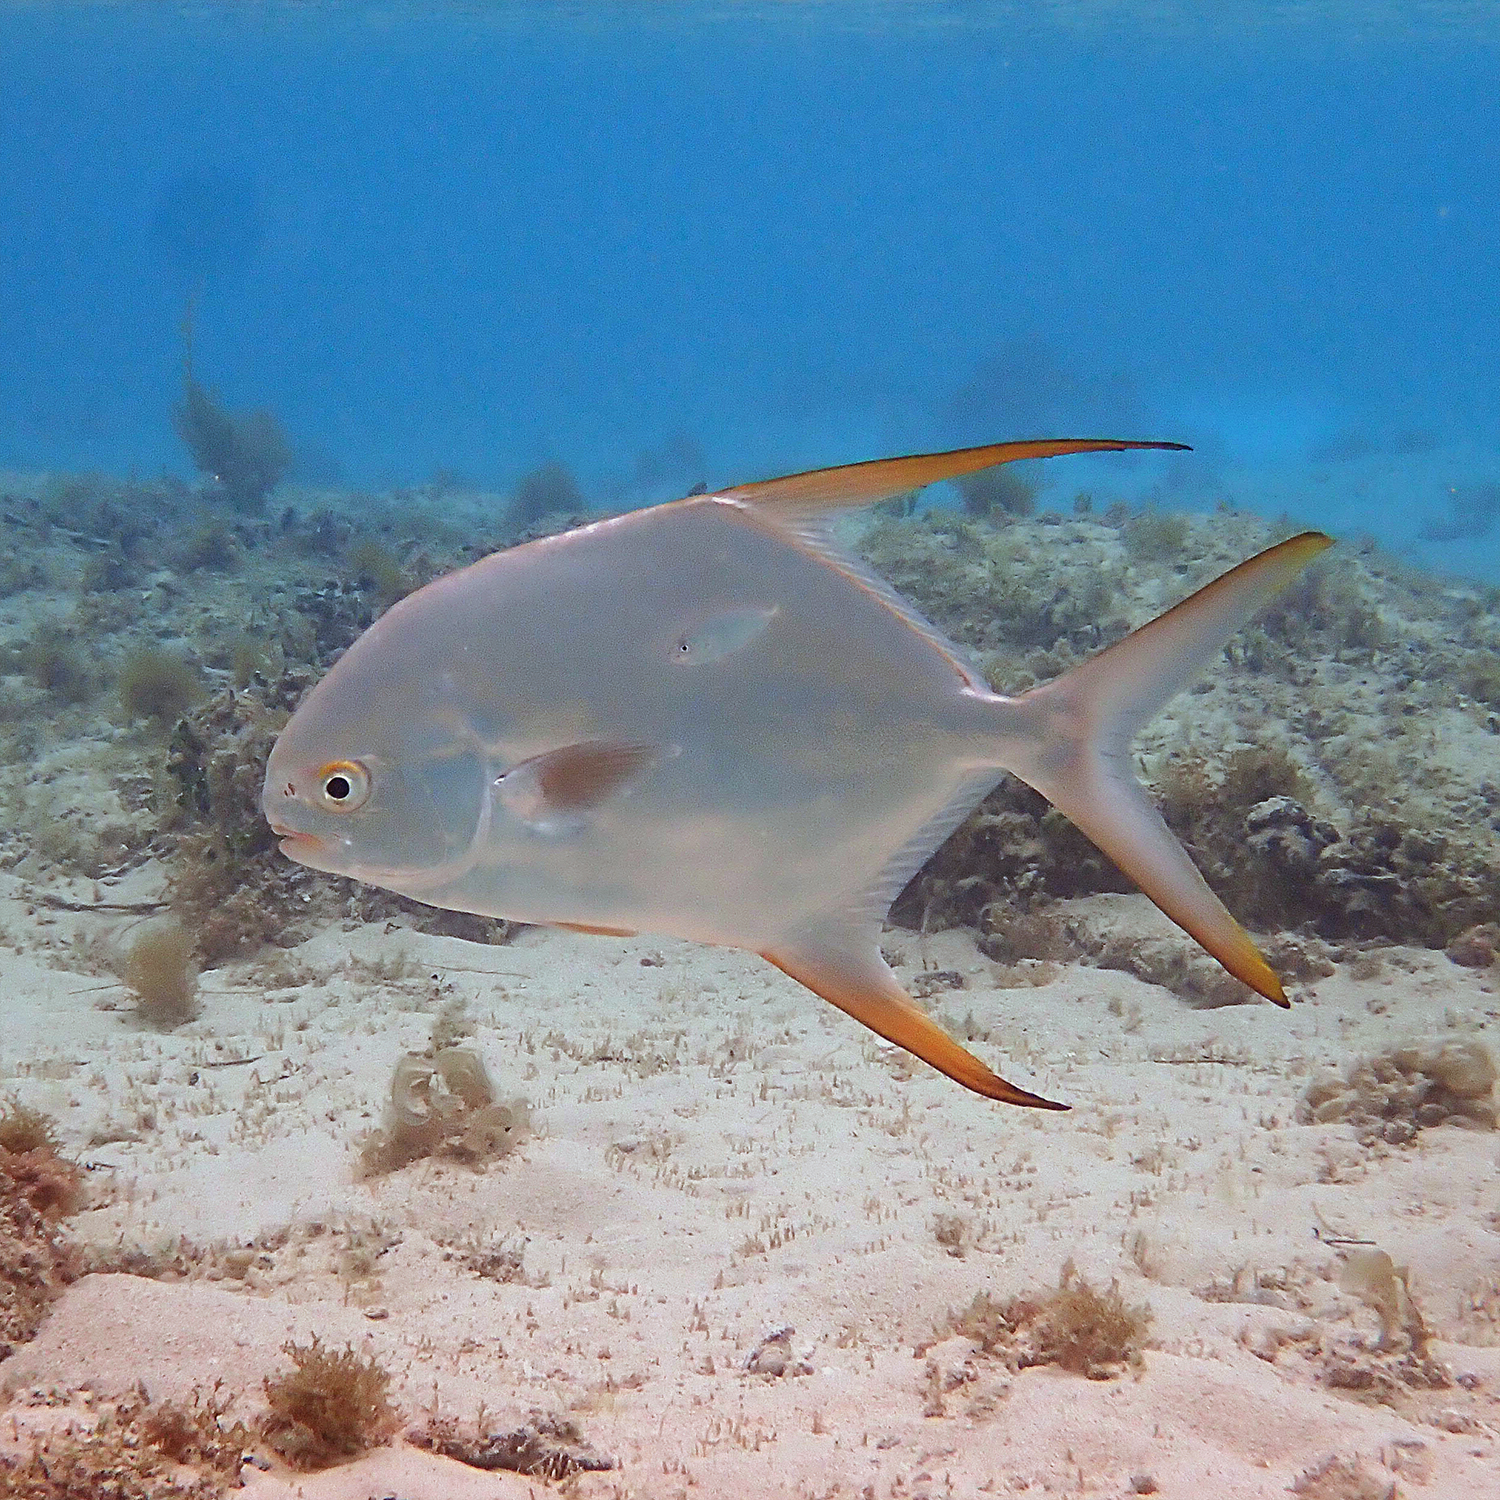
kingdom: Animalia
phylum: Chordata
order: Perciformes
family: Carangidae
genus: Trachinotus
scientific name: Trachinotus blochii
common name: Snubnose pompano
